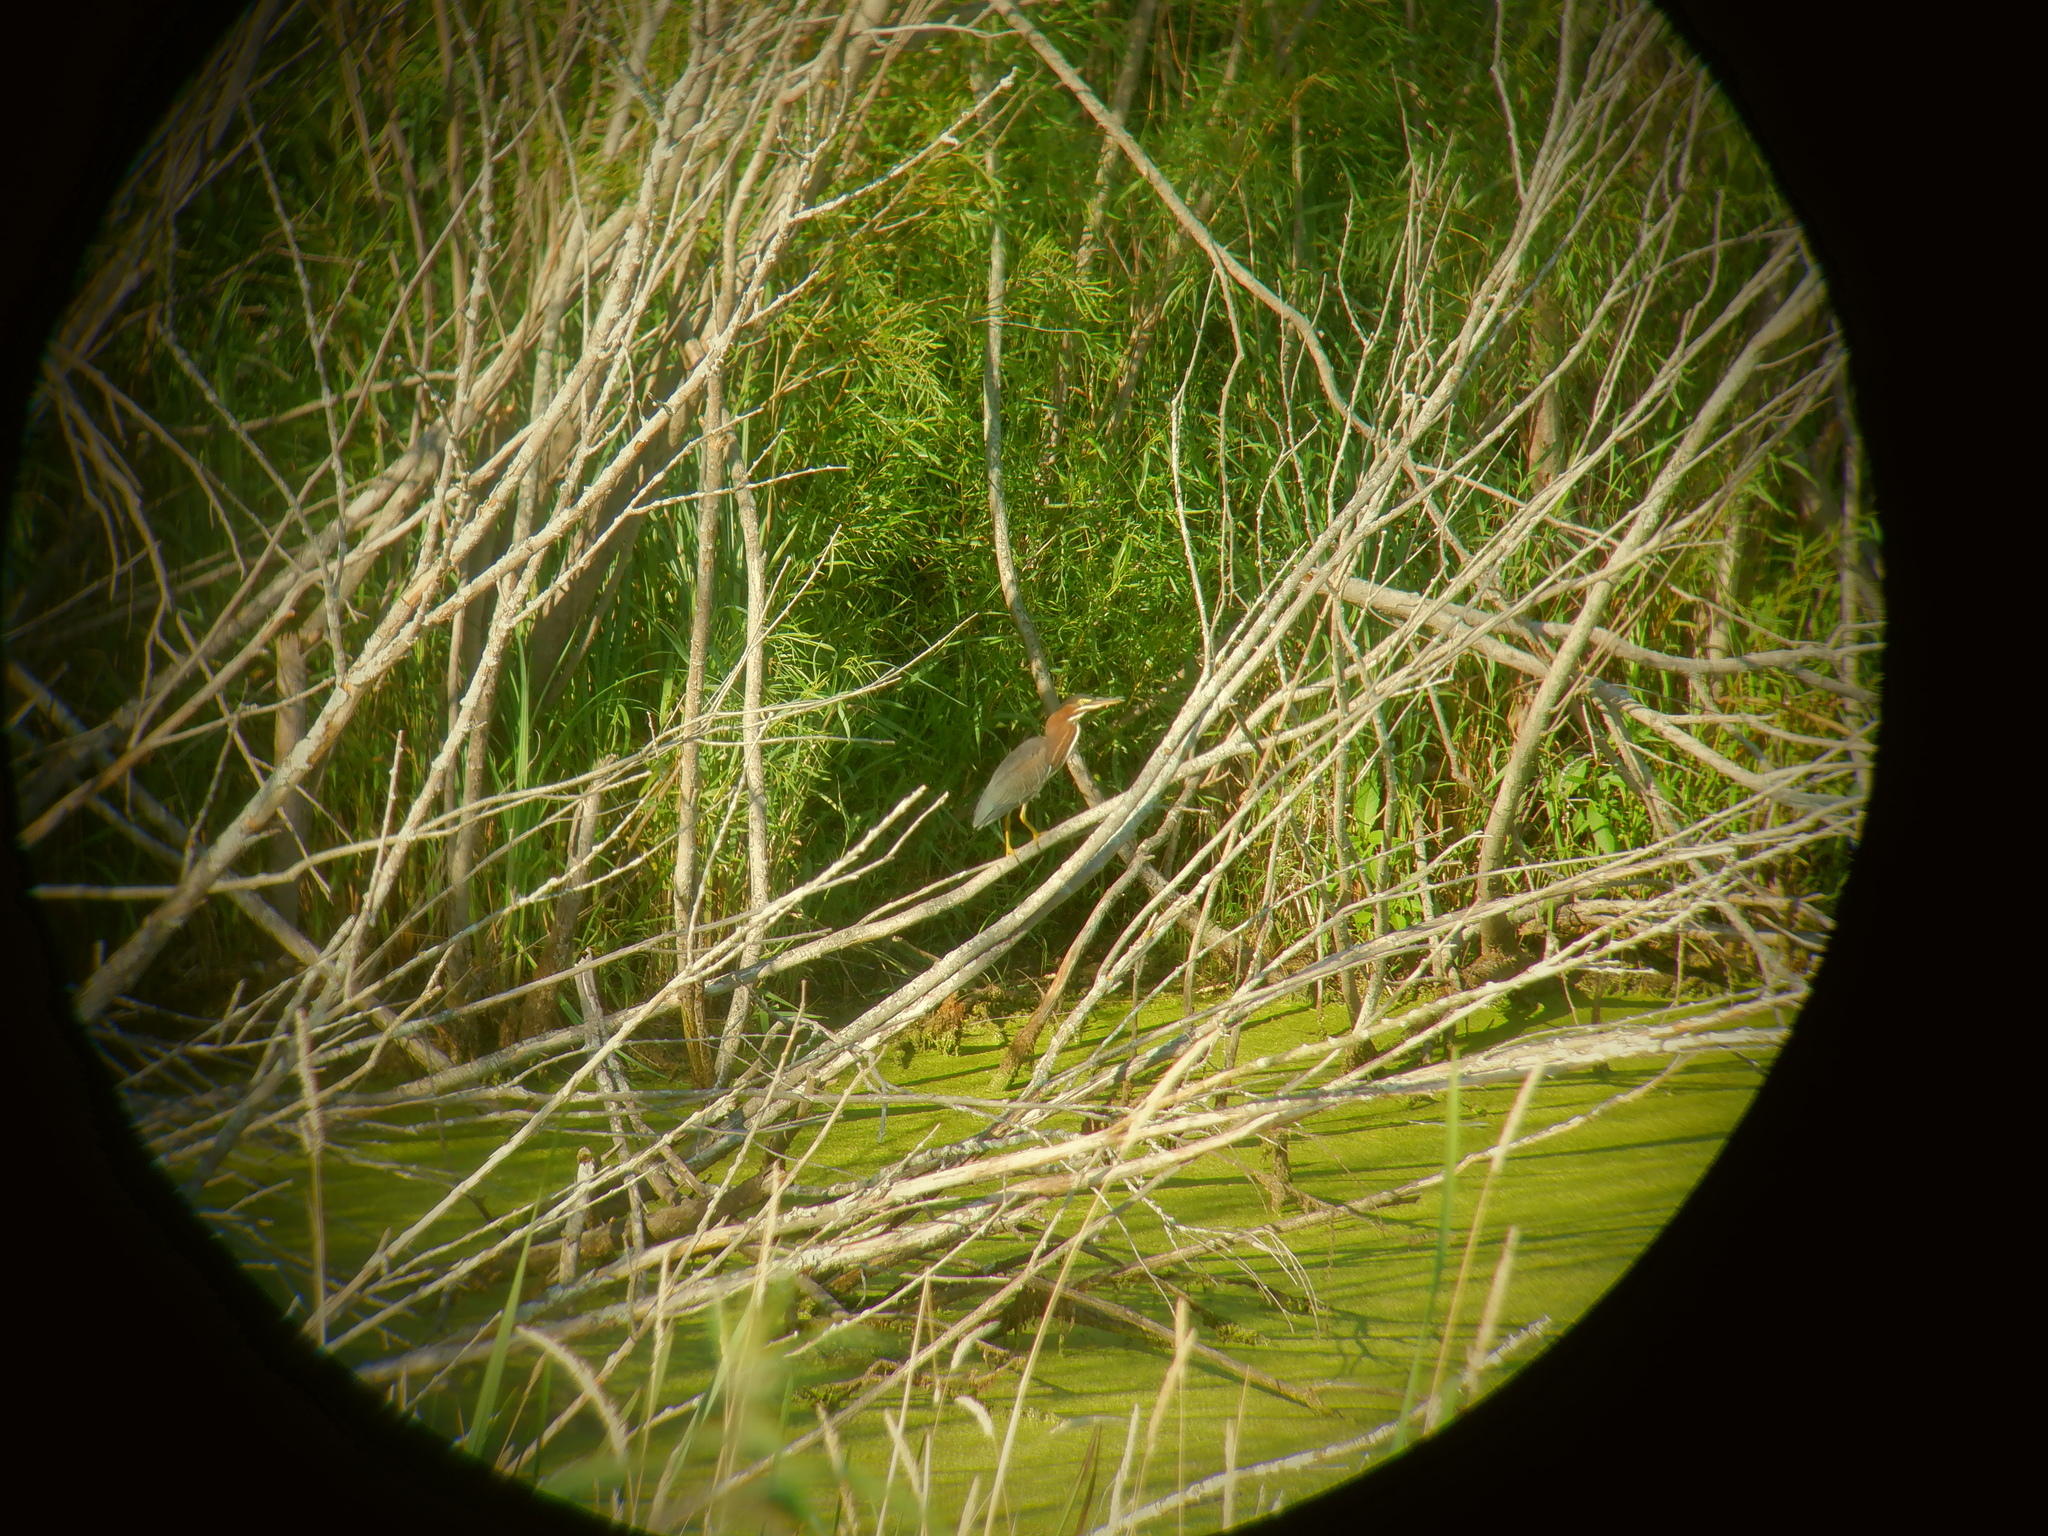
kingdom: Animalia
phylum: Chordata
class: Aves
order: Pelecaniformes
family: Ardeidae
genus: Butorides
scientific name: Butorides virescens
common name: Green heron
